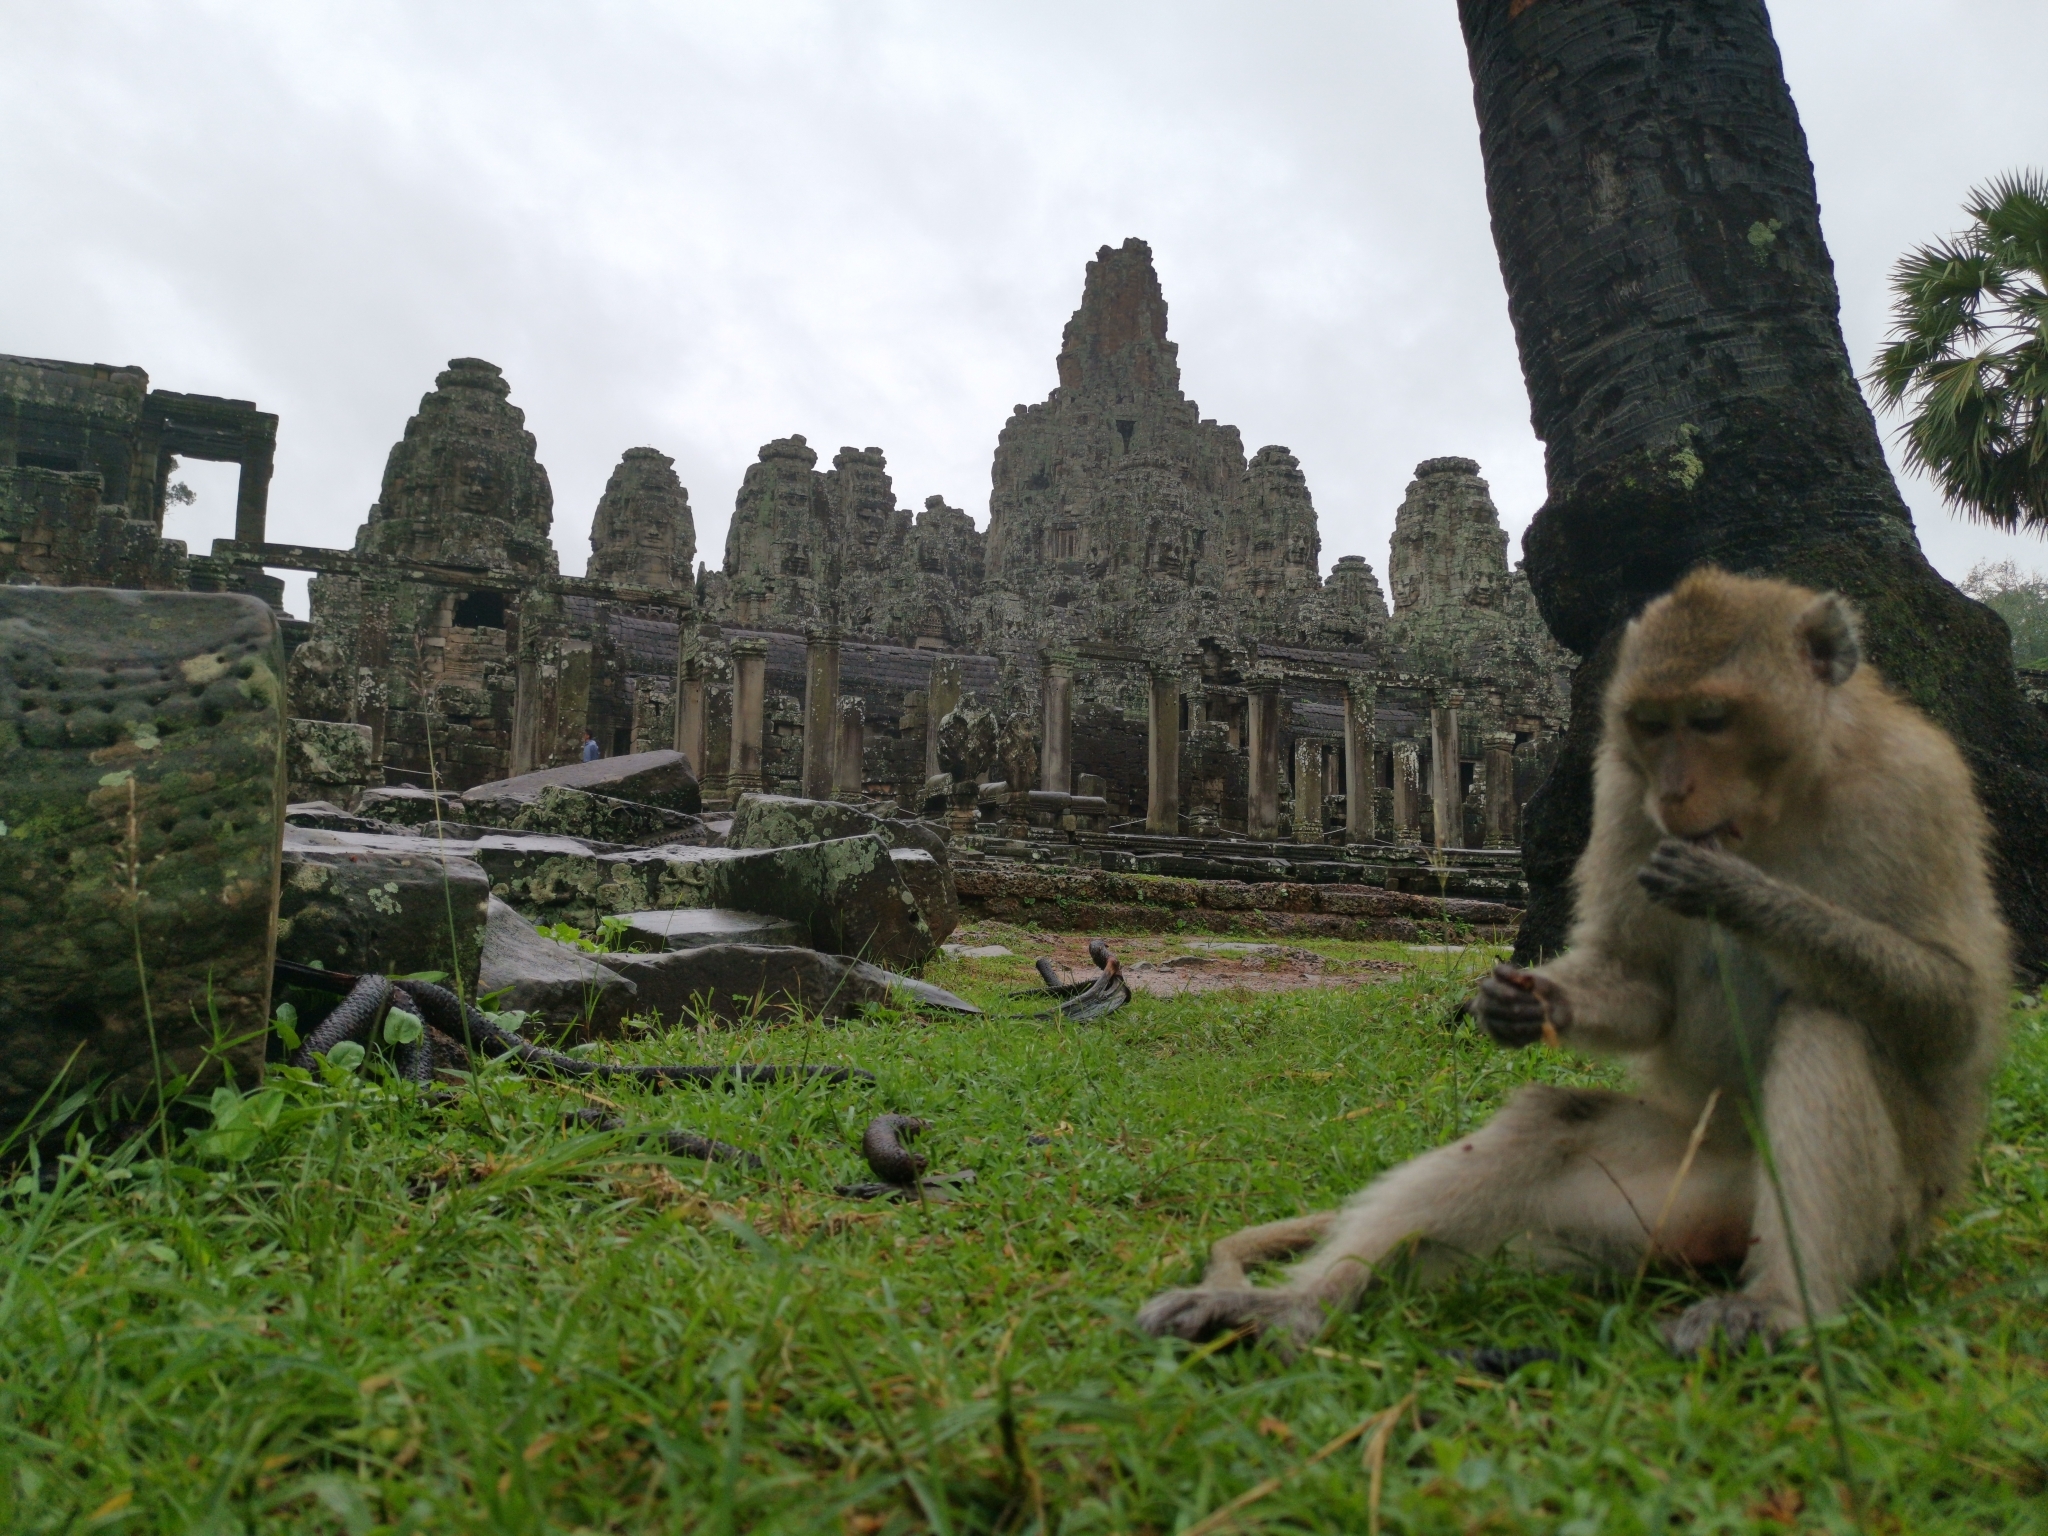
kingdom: Animalia
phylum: Chordata
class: Mammalia
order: Primates
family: Cercopithecidae
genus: Macaca
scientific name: Macaca fascicularis
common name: Crab-eating macaque
